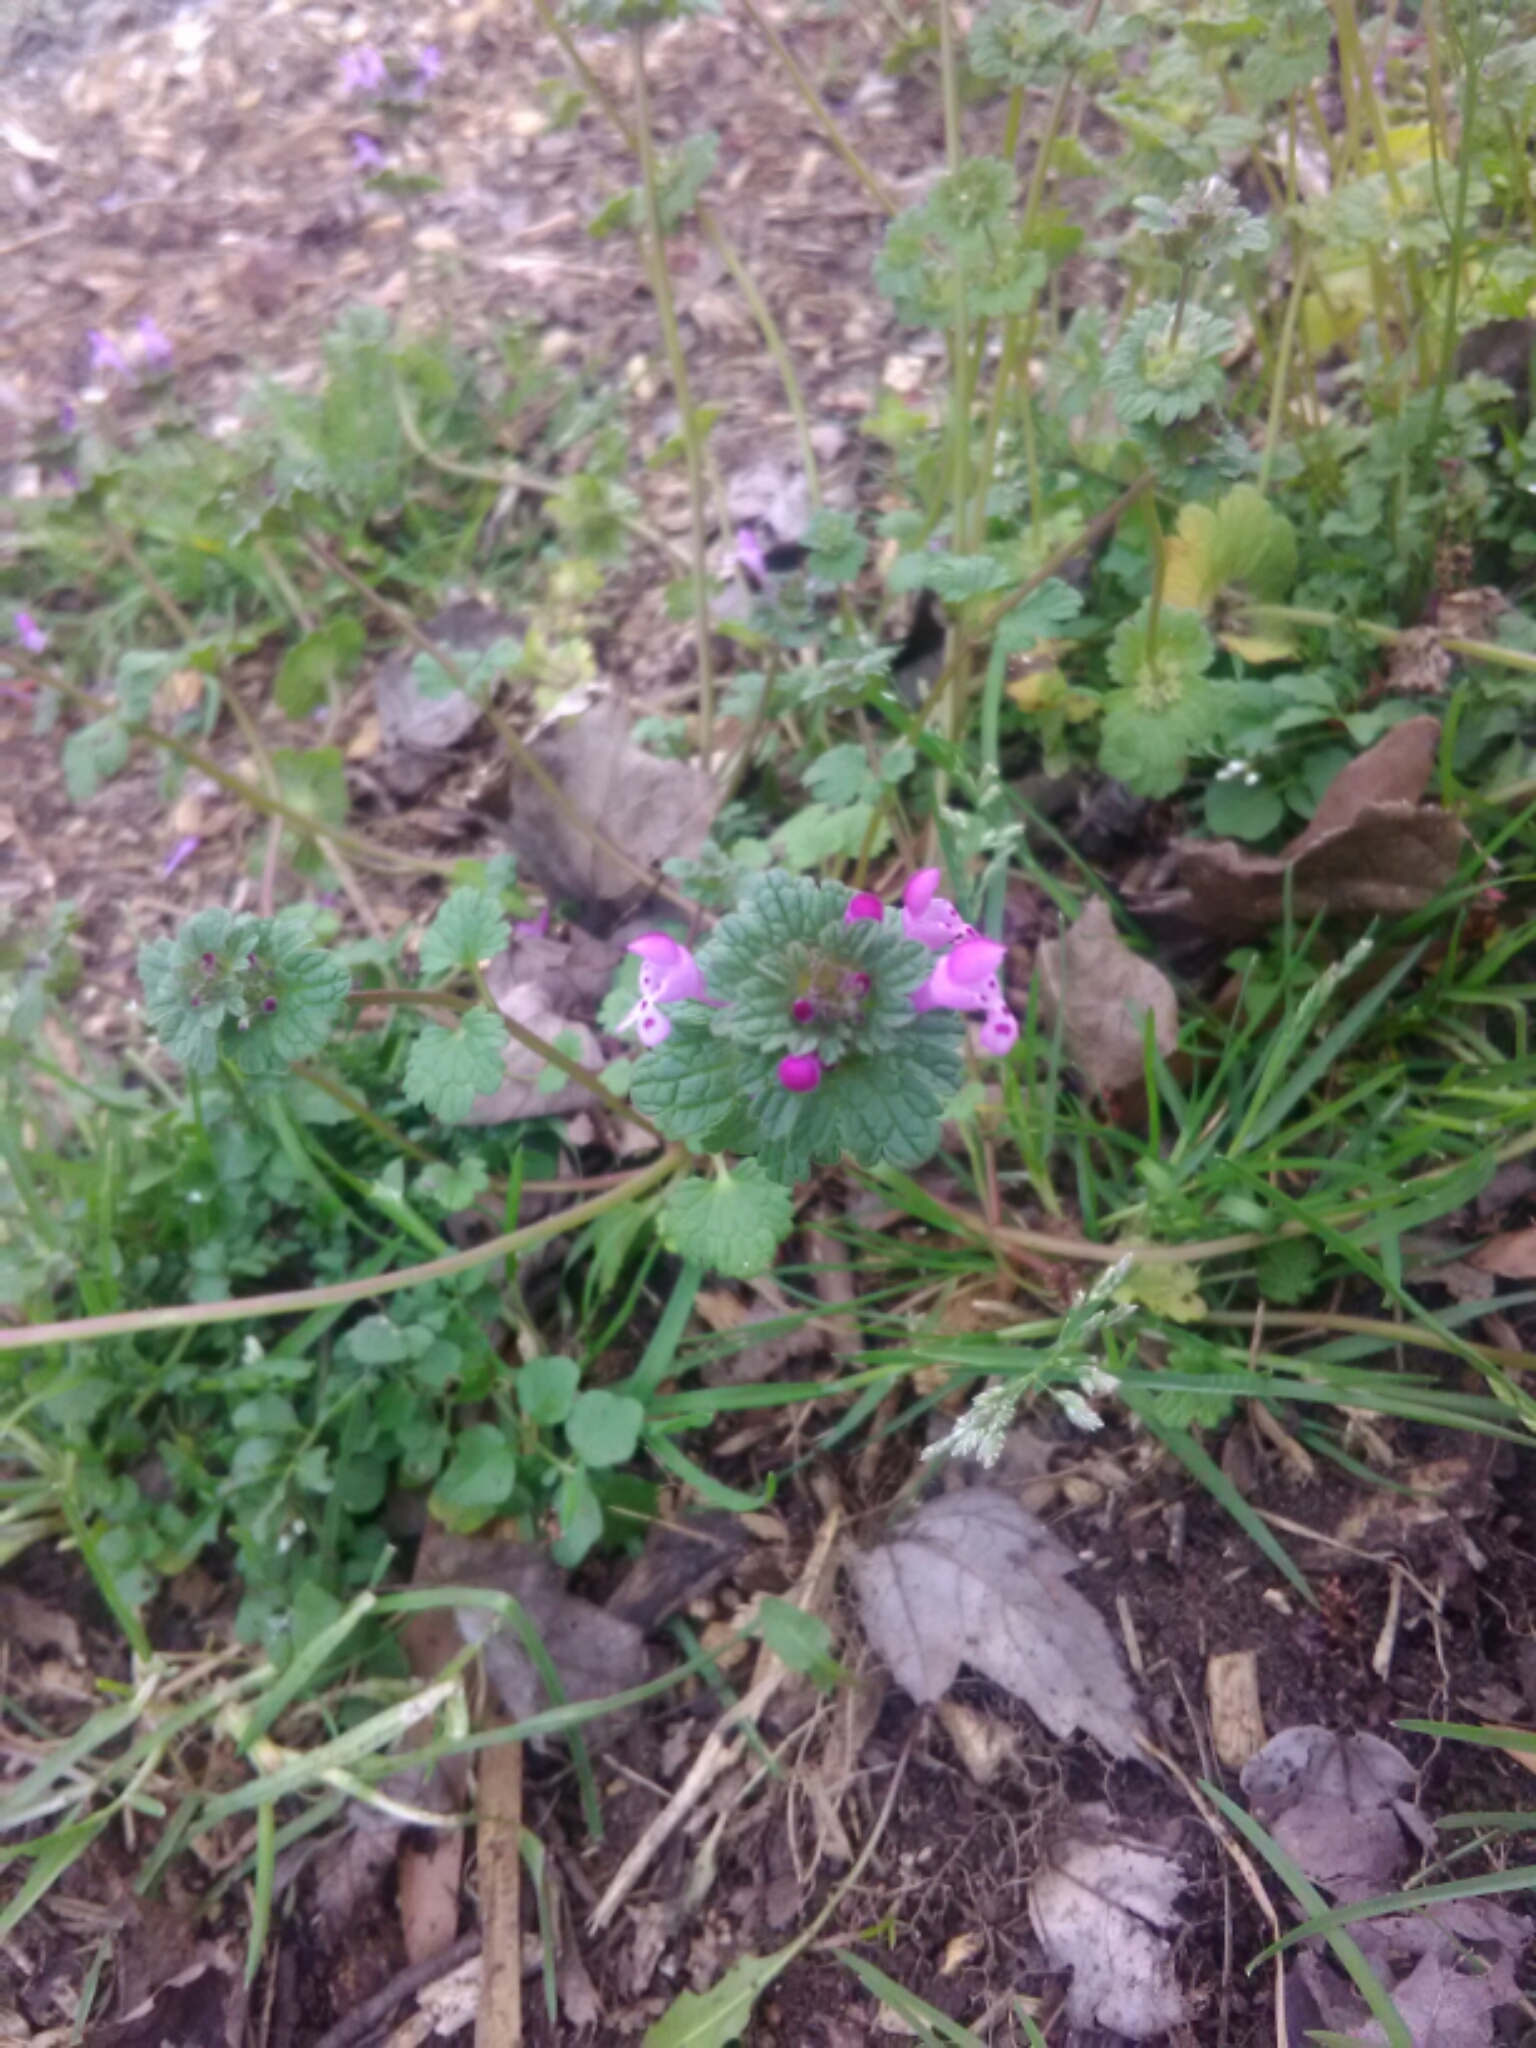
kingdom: Plantae
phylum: Tracheophyta
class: Magnoliopsida
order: Lamiales
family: Lamiaceae
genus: Lamium
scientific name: Lamium amplexicaule
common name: Henbit dead-nettle
